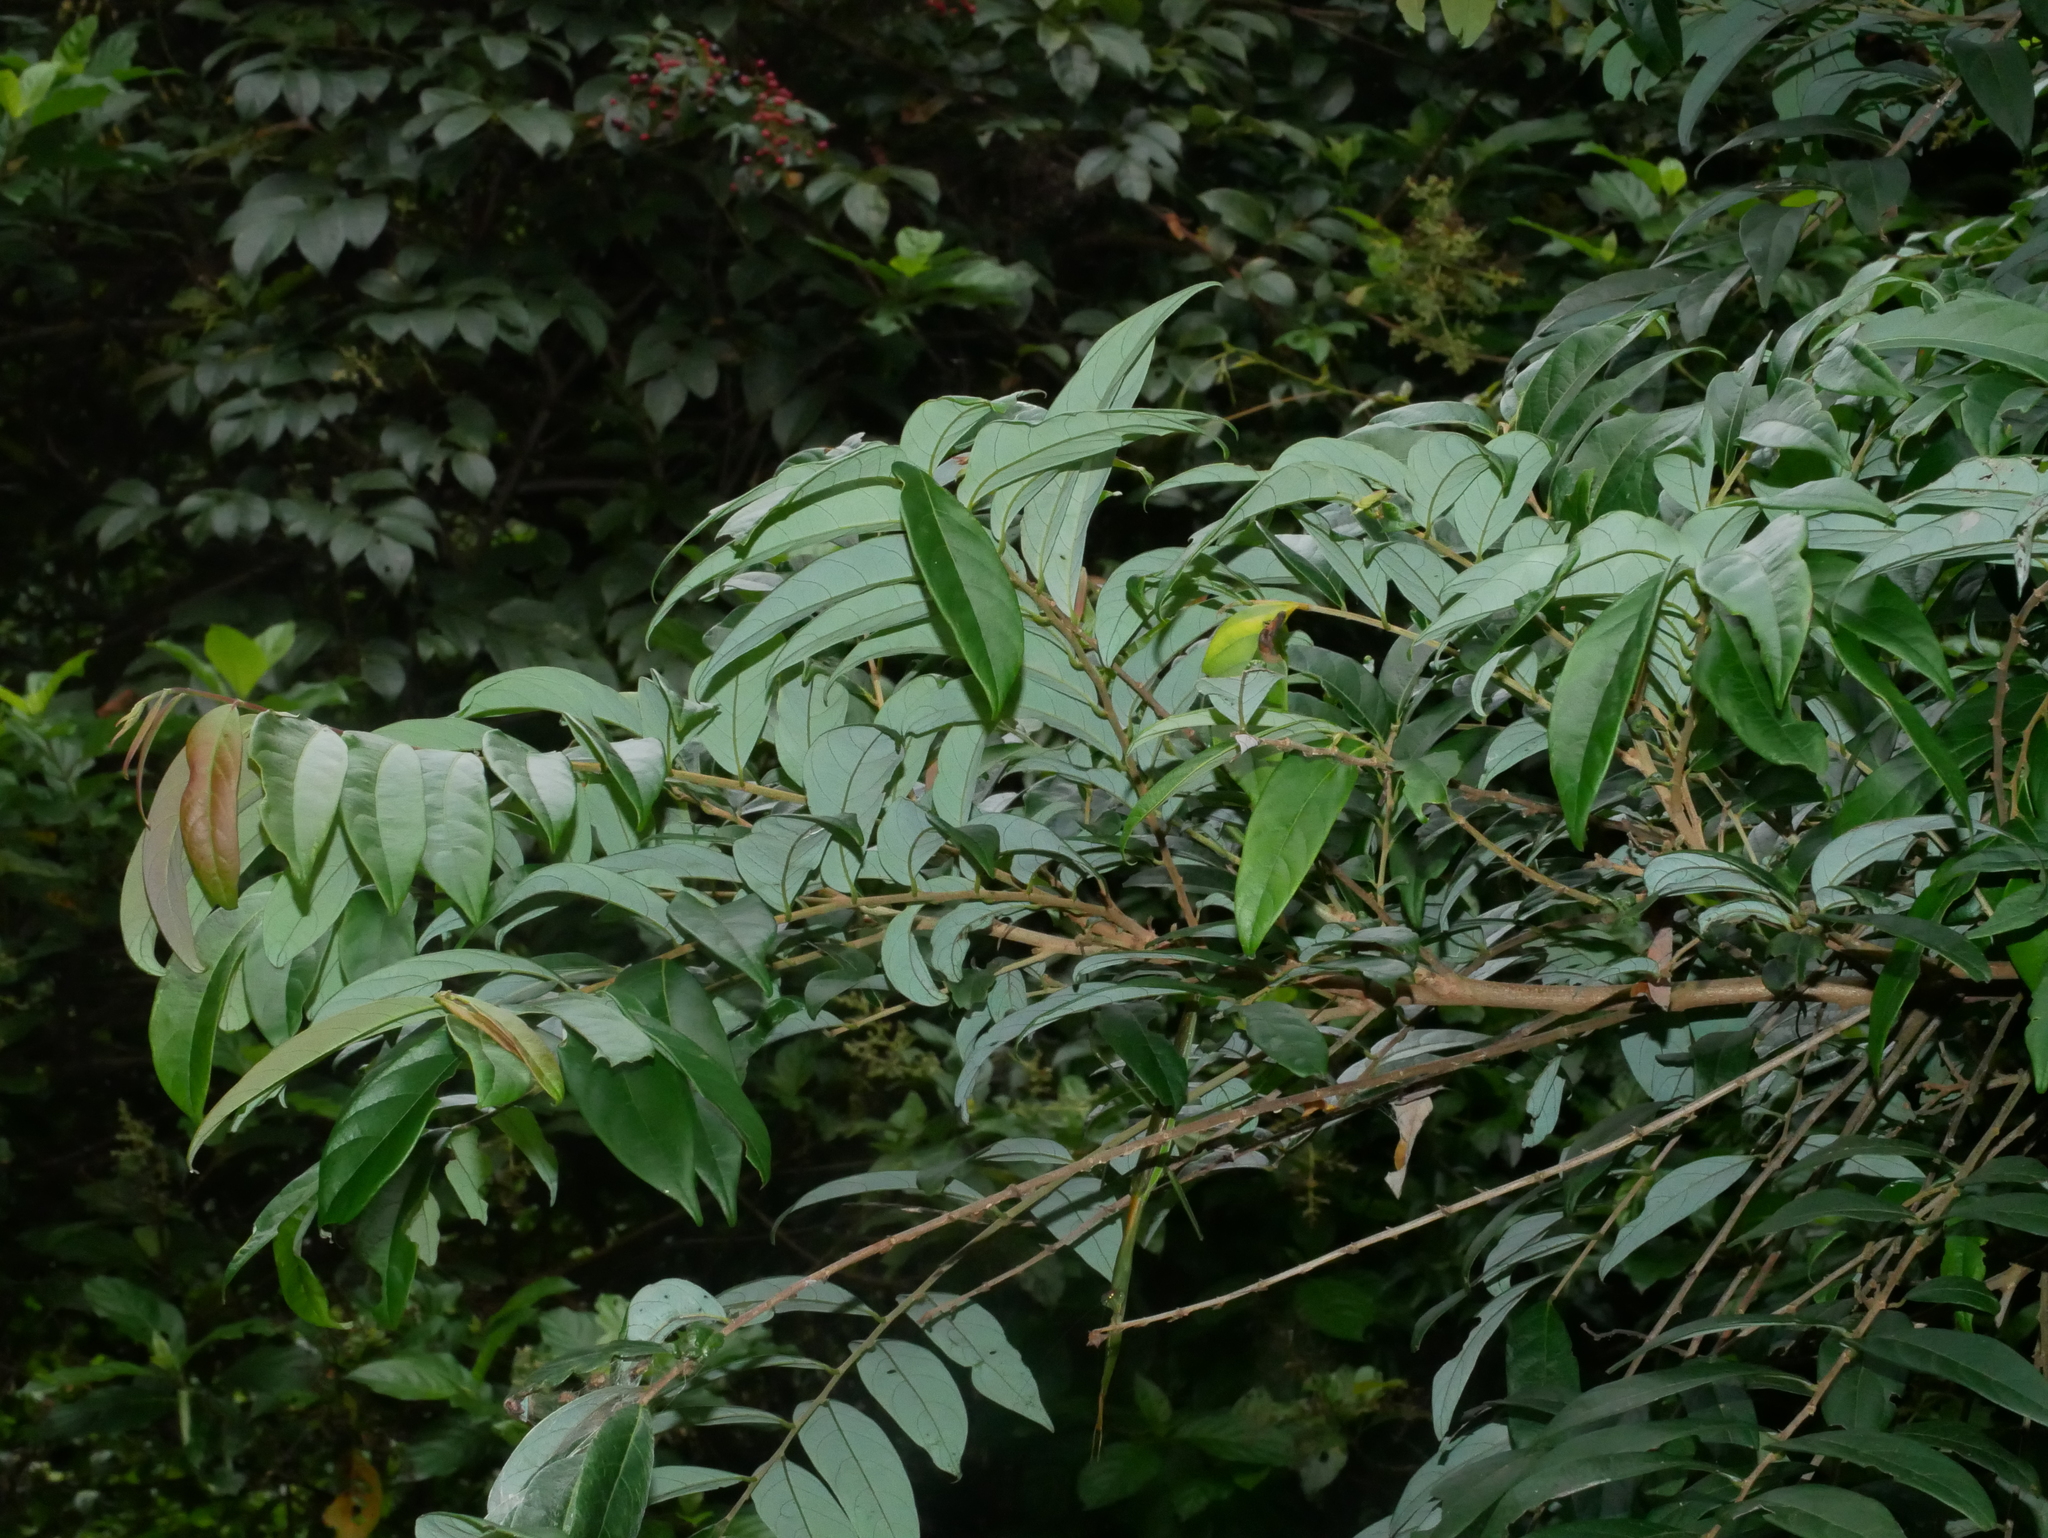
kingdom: Plantae
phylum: Tracheophyta
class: Magnoliopsida
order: Malpighiales
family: Phyllanthaceae
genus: Glochidion
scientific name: Glochidion acuminatum
